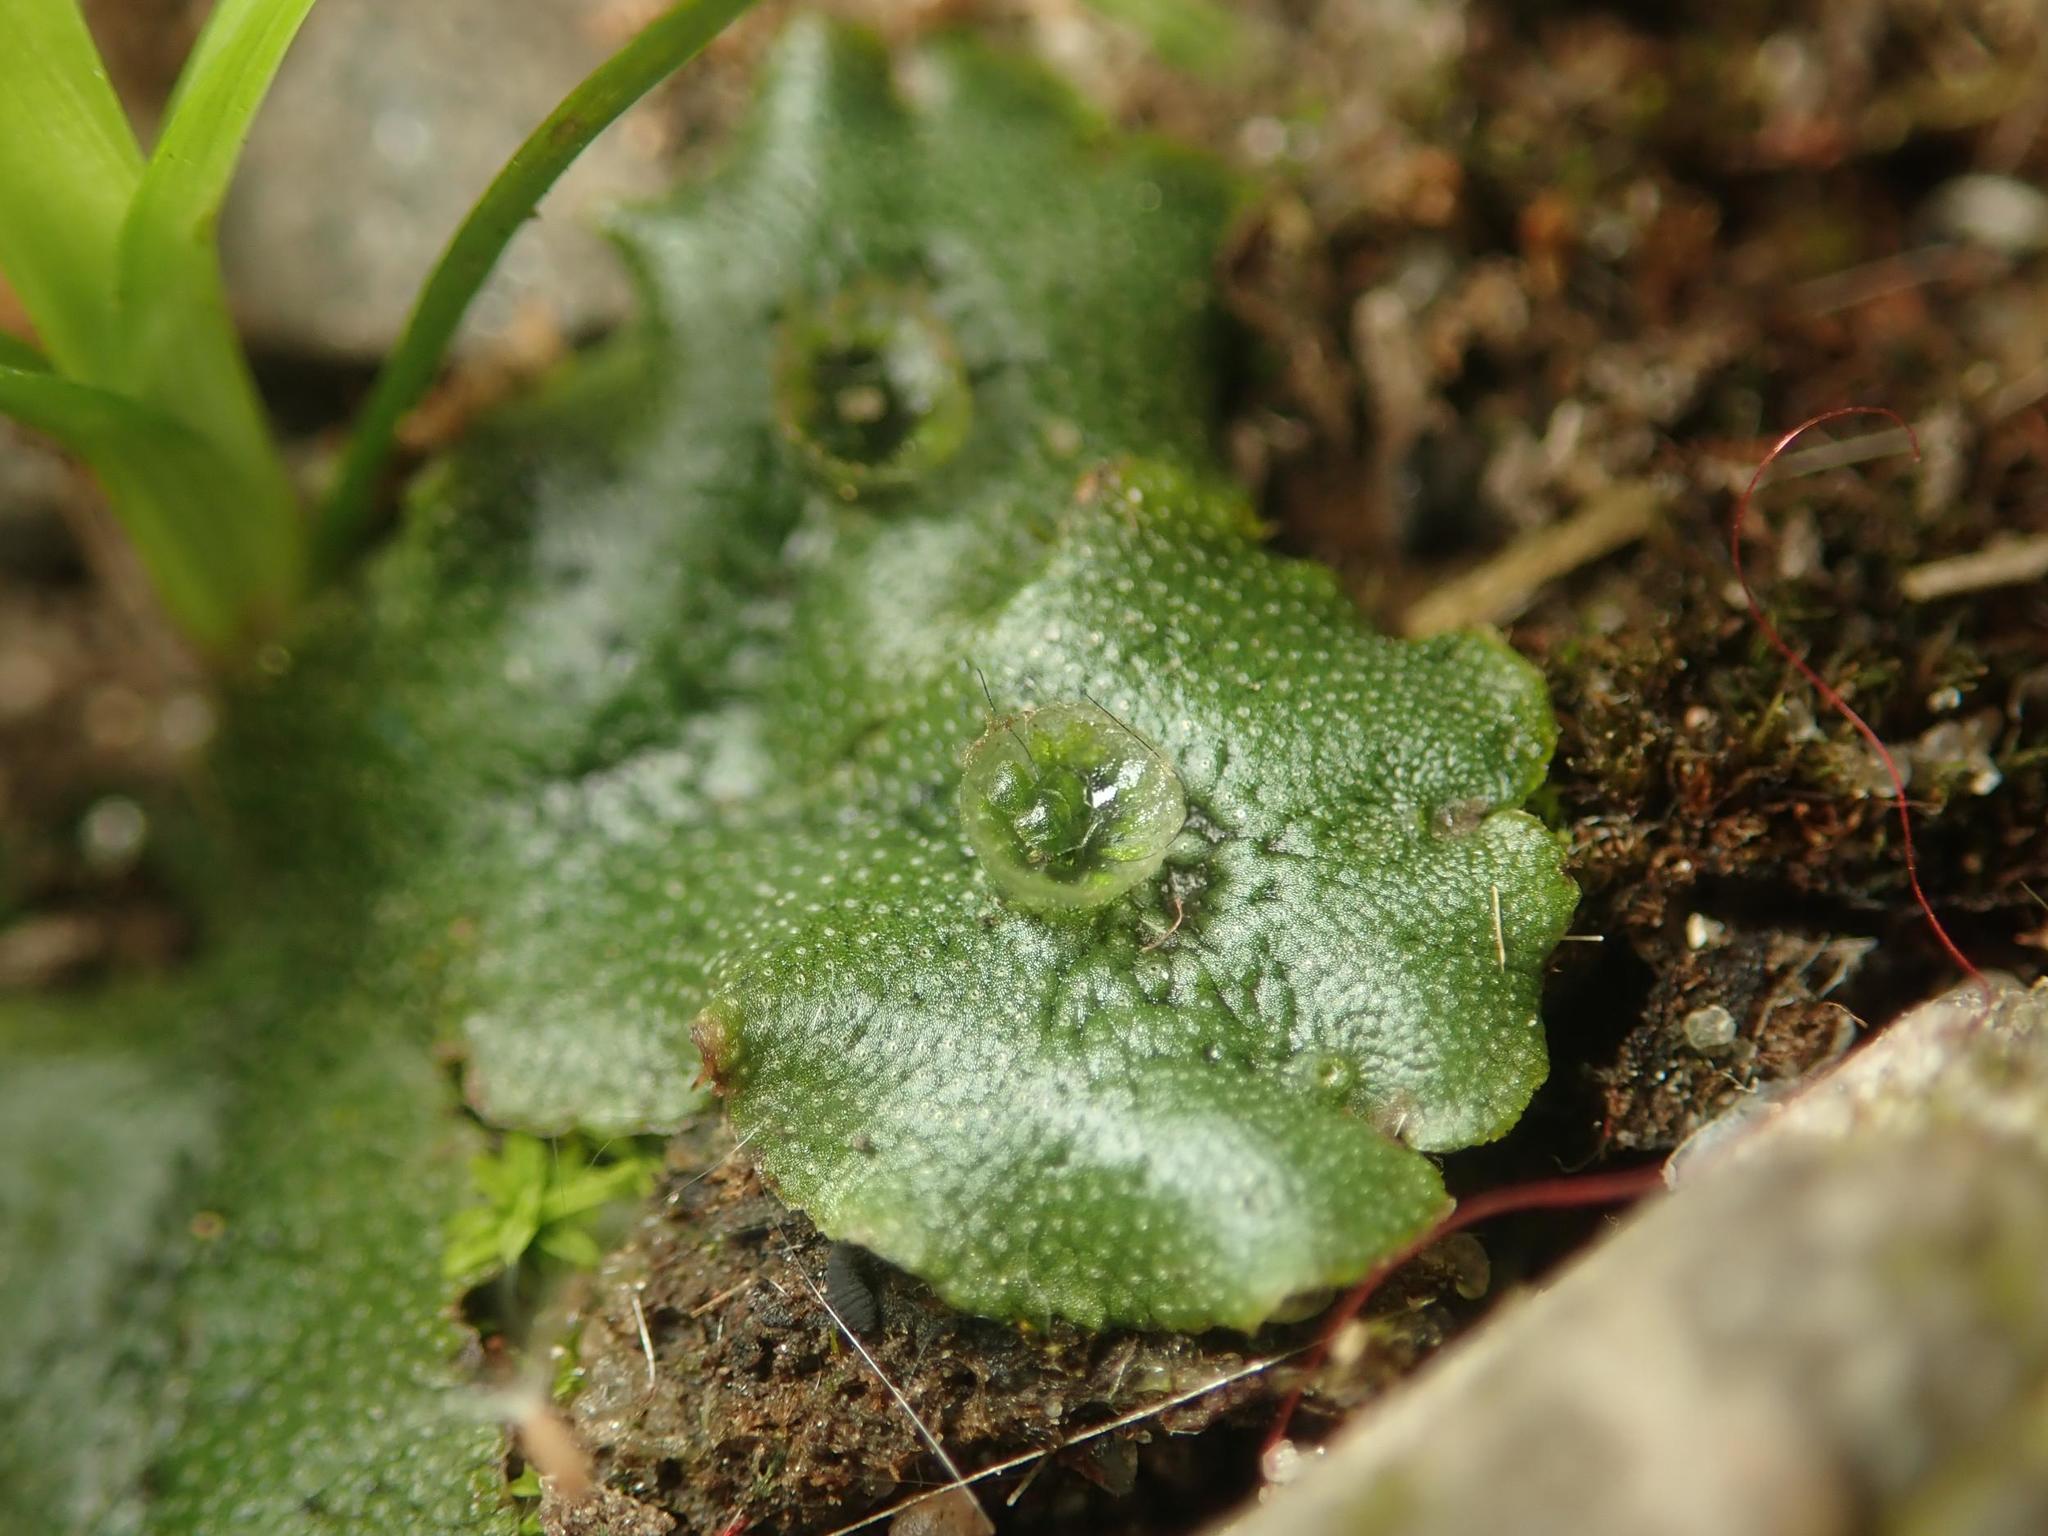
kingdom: Plantae
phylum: Marchantiophyta
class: Marchantiopsida
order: Marchantiales
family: Marchantiaceae
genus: Marchantia
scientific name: Marchantia polymorpha
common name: Common liverwort
